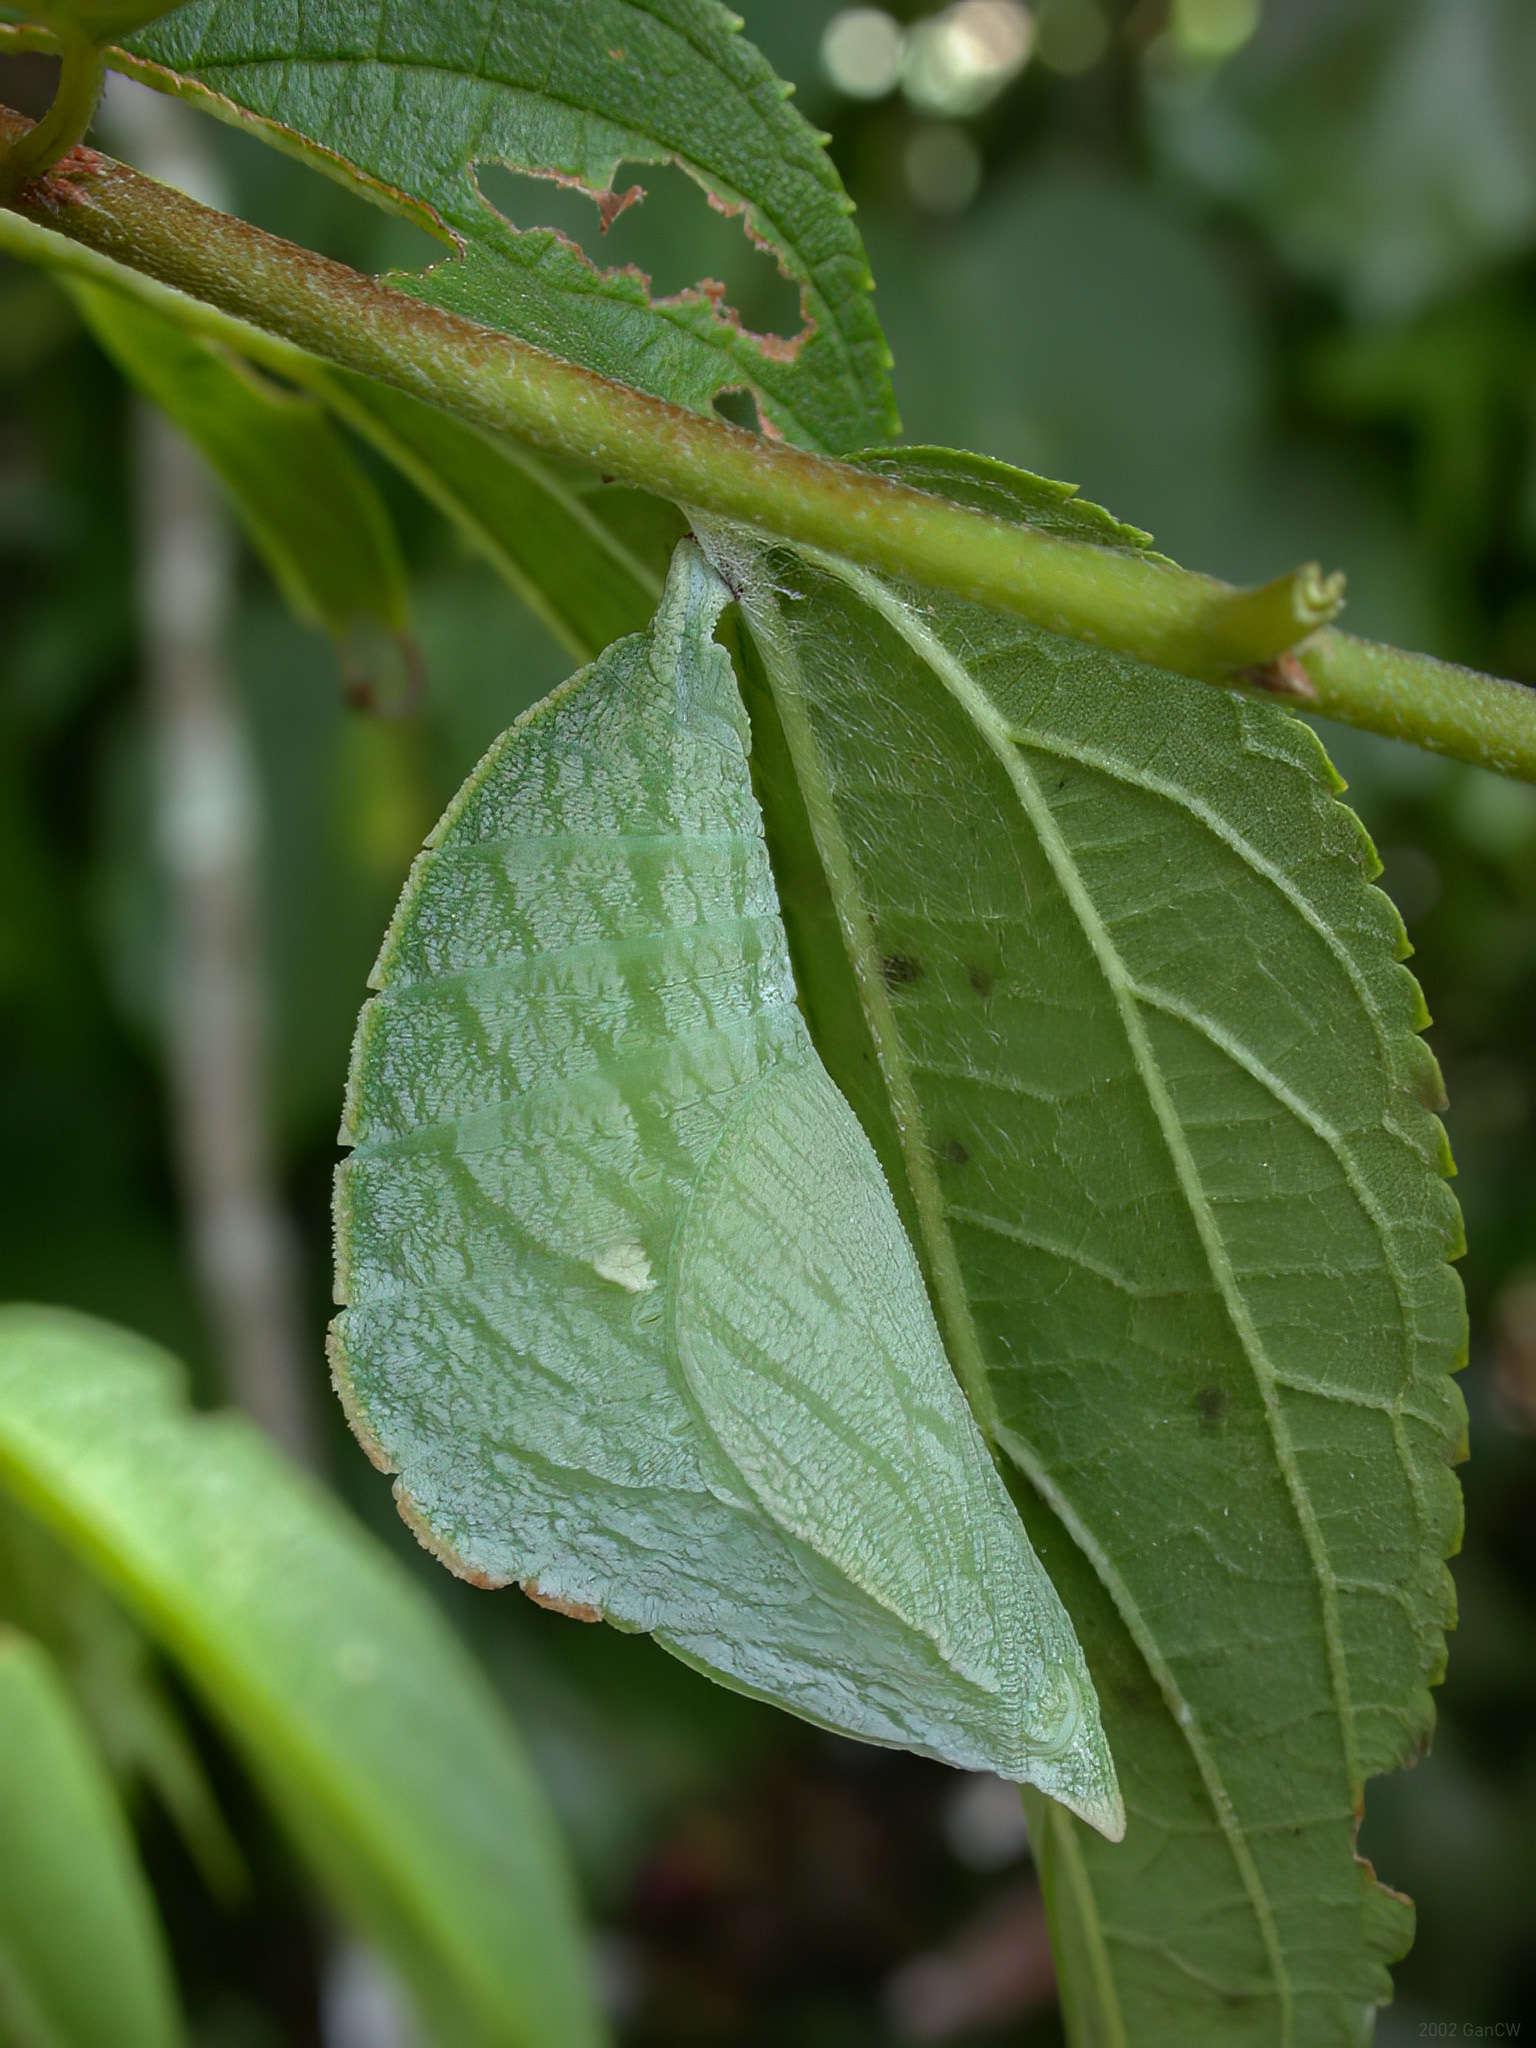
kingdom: Animalia
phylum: Arthropoda
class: Insecta
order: Lepidoptera
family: Nymphalidae
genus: Euripus
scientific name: Euripus nyctelius
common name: Courtesan
